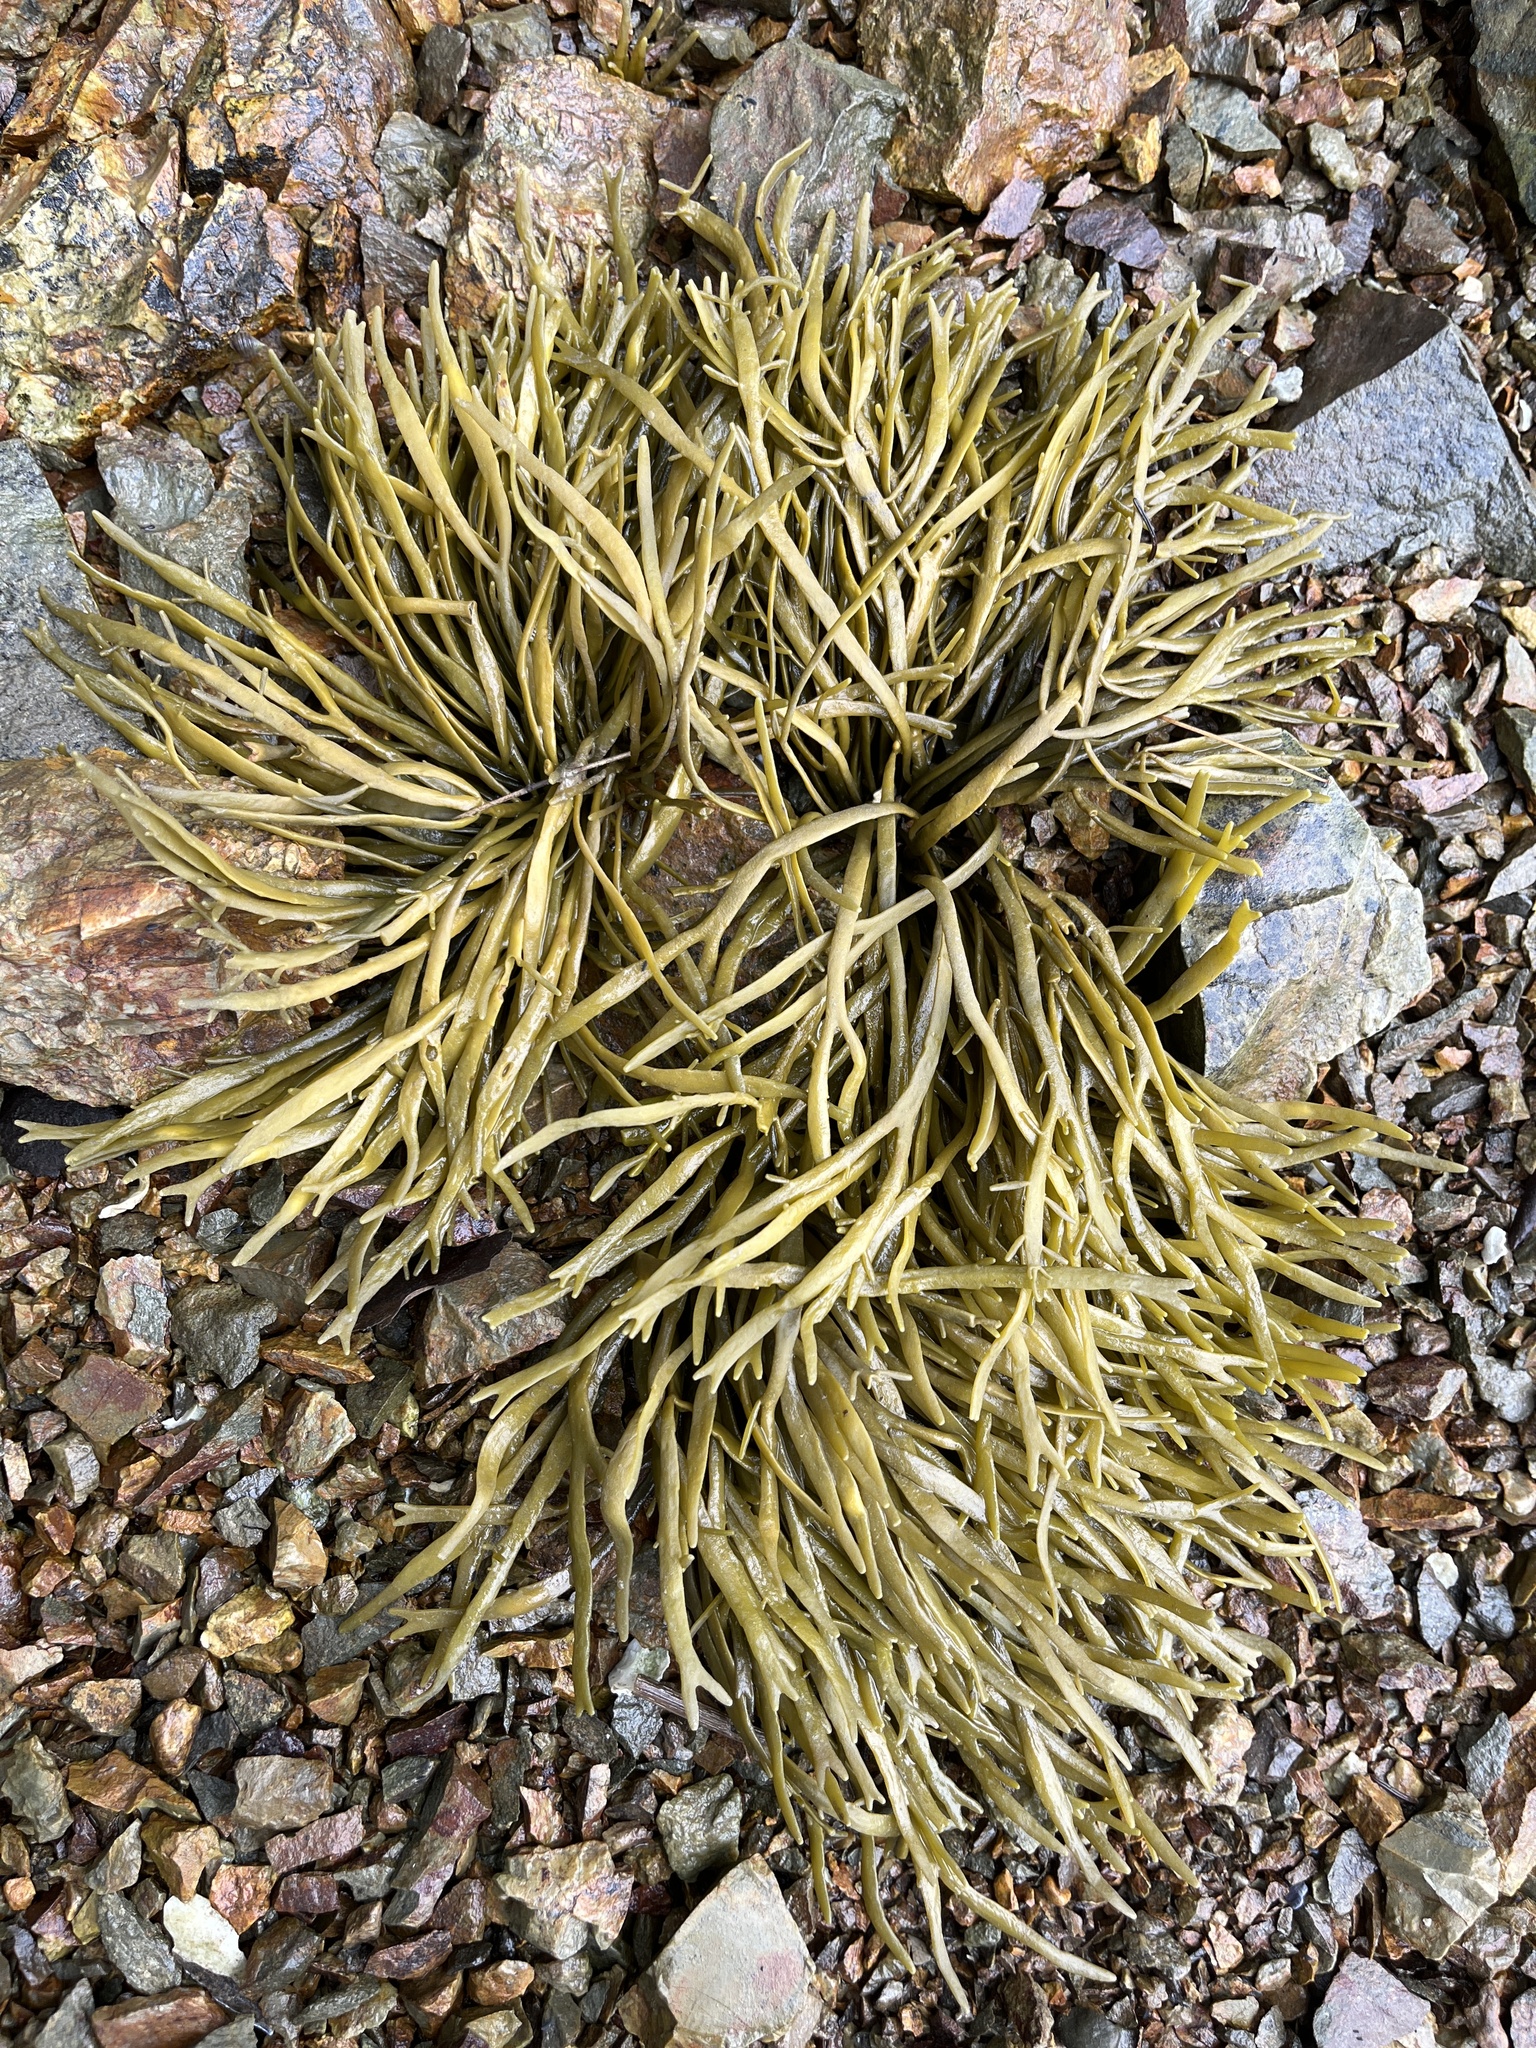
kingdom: Chromista
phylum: Ochrophyta
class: Phaeophyceae
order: Fucales
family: Fucaceae
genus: Ascophyllum
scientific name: Ascophyllum nodosum
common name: Knotted wrack
